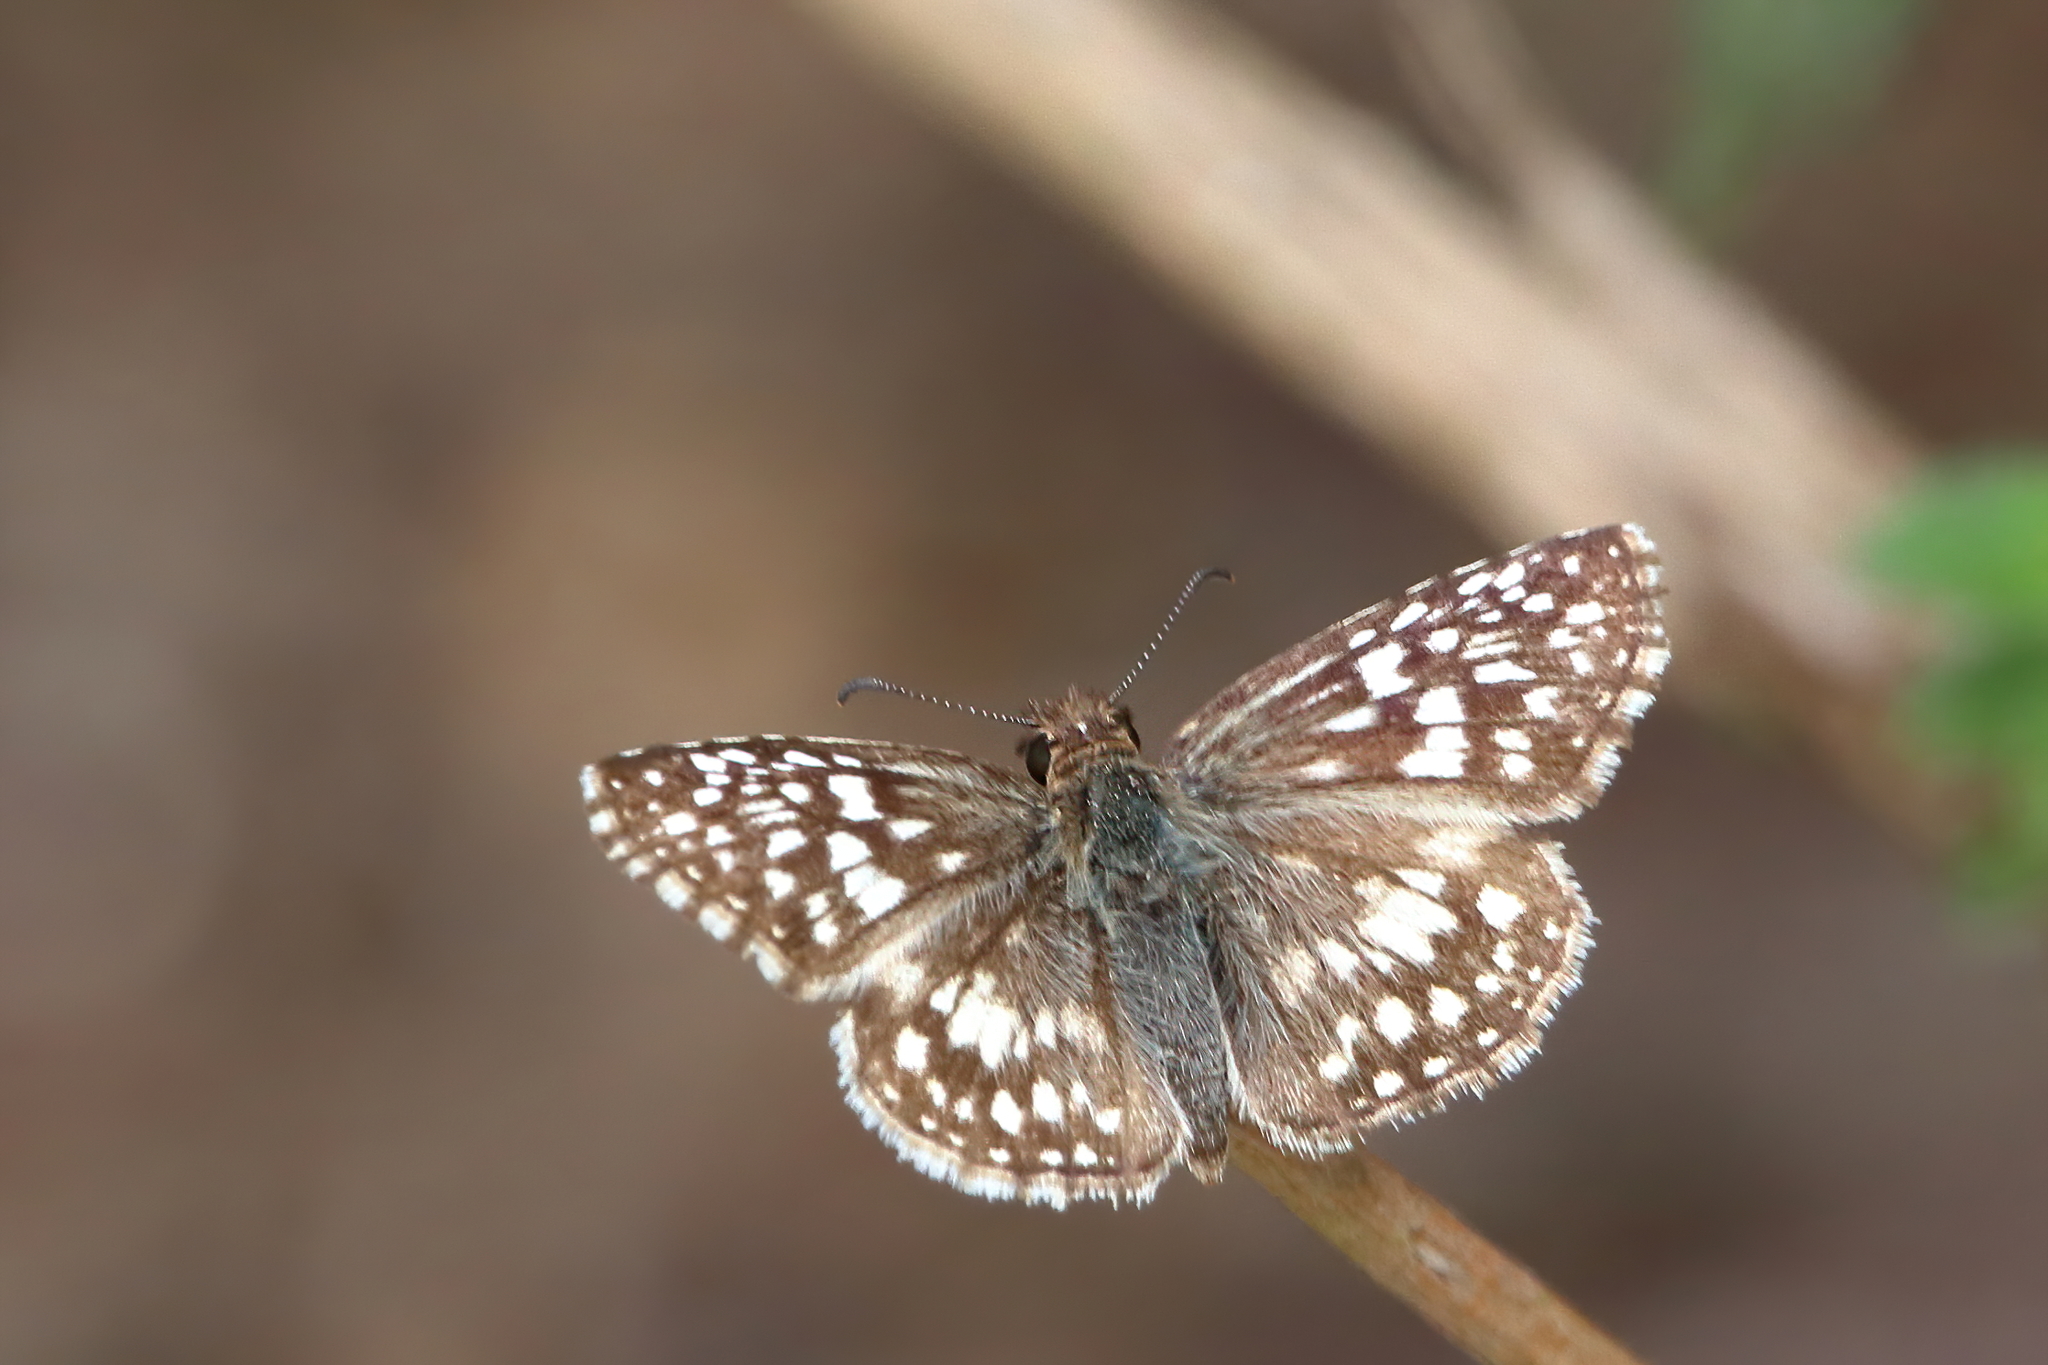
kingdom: Animalia
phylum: Arthropoda
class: Insecta
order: Lepidoptera
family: Hesperiidae
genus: Pyrgus
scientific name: Pyrgus oileus
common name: Tropical checkered-skipper
